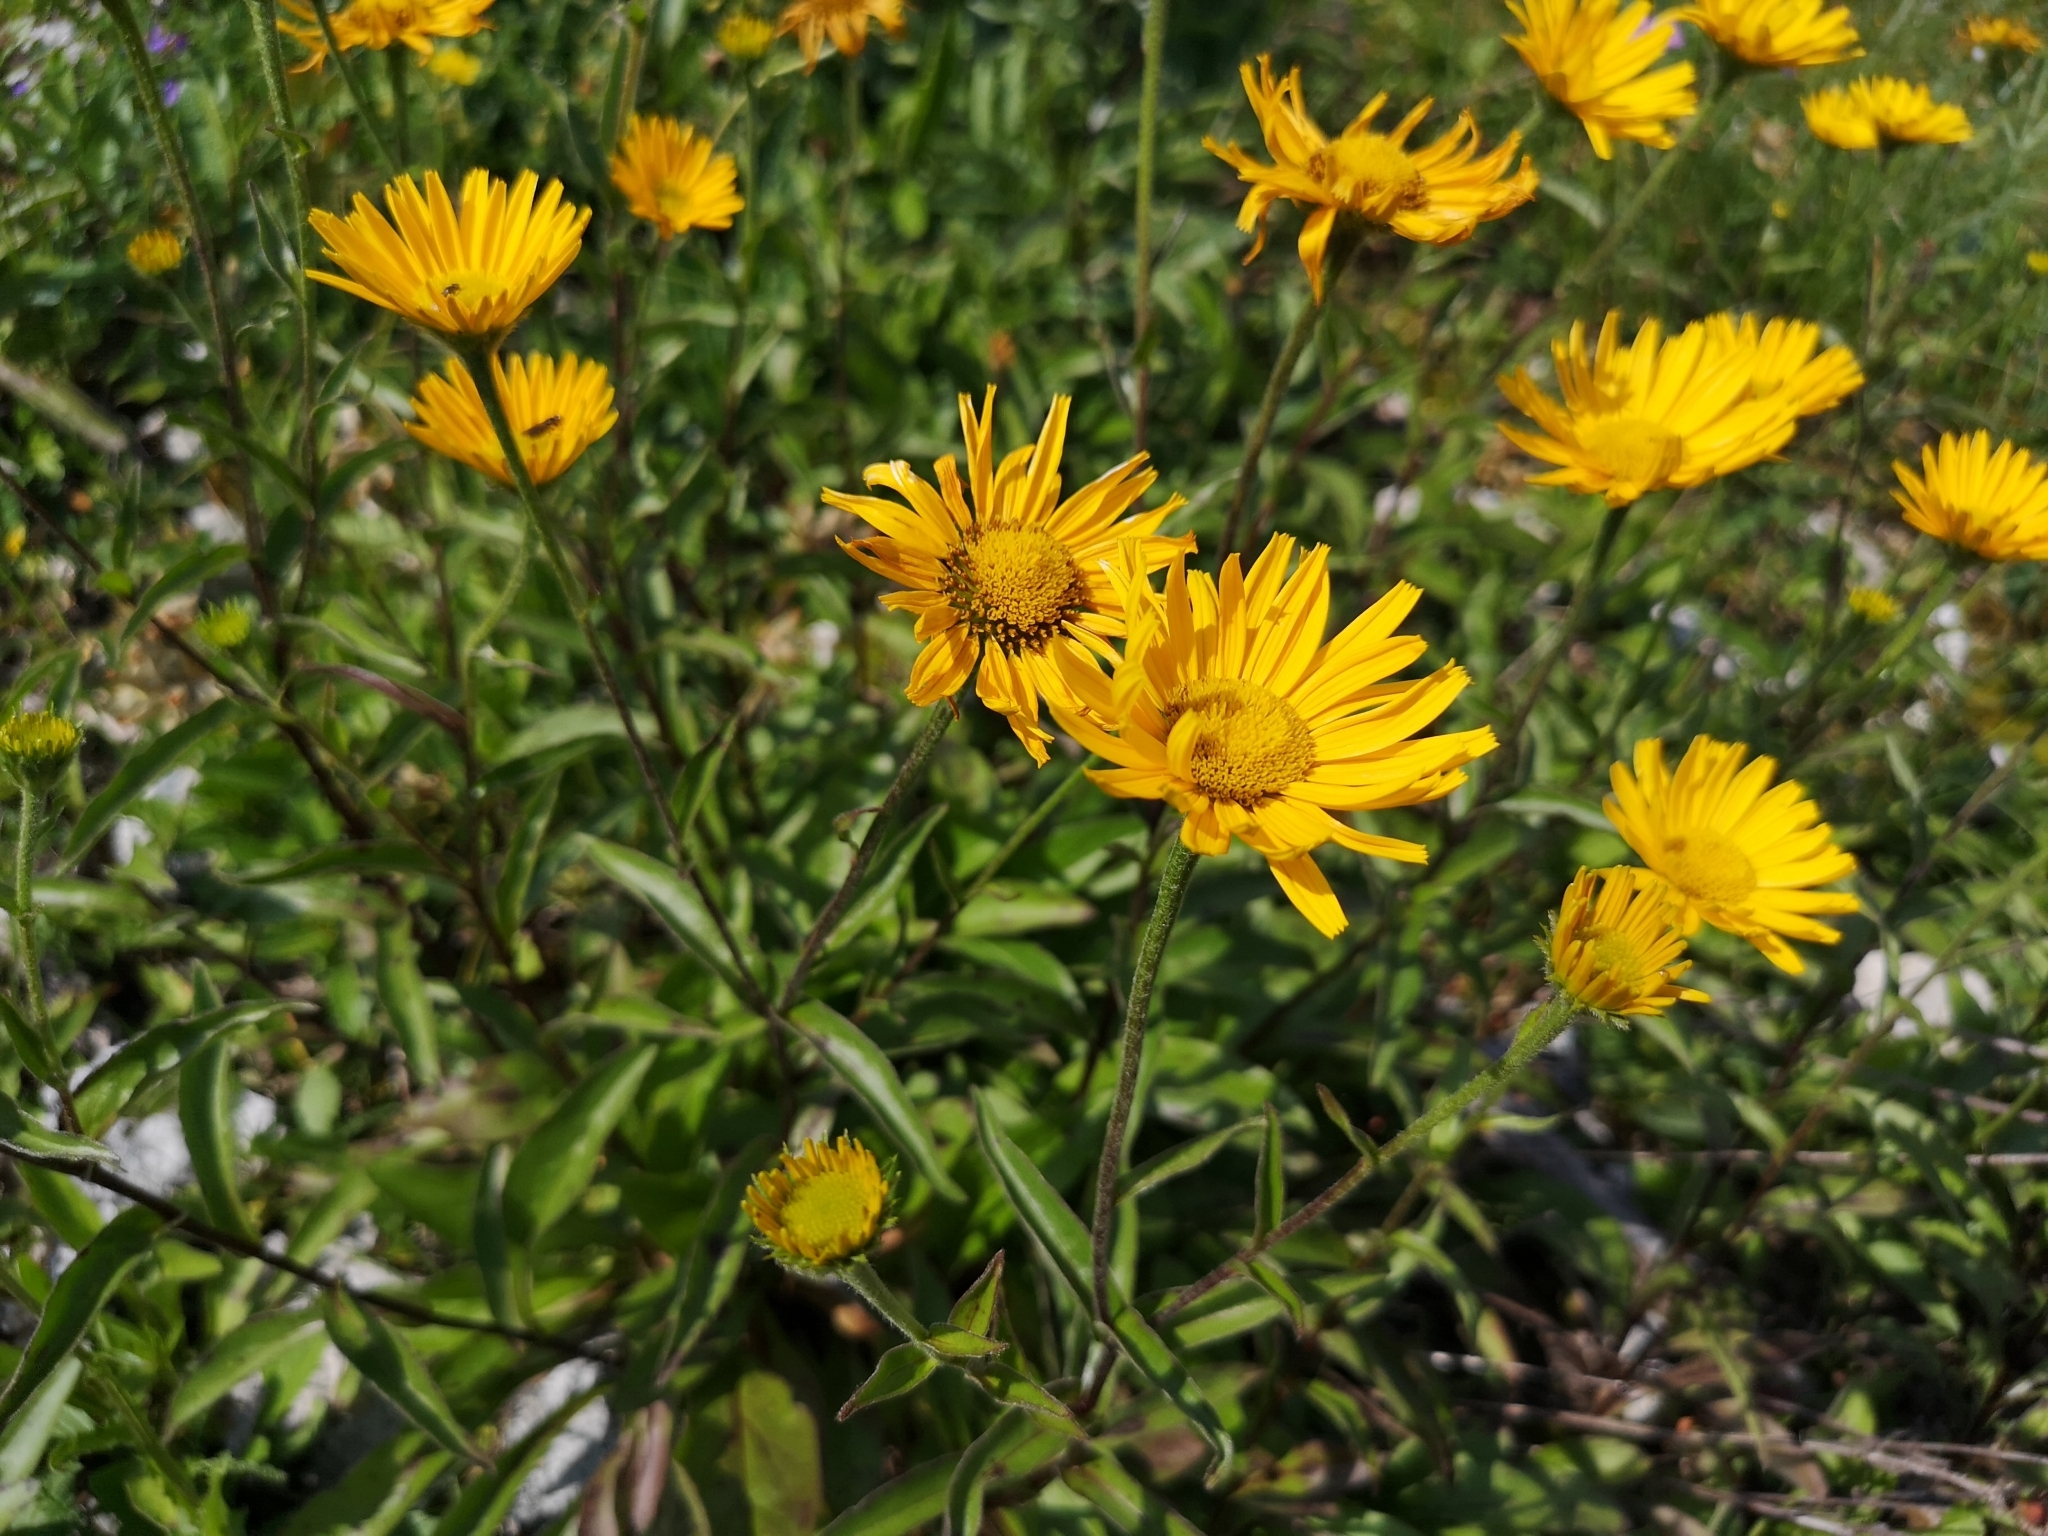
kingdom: Plantae
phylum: Tracheophyta
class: Magnoliopsida
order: Asterales
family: Asteraceae
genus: Buphthalmum
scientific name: Buphthalmum salicifolium
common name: Willow-leaved yellow-oxeye
